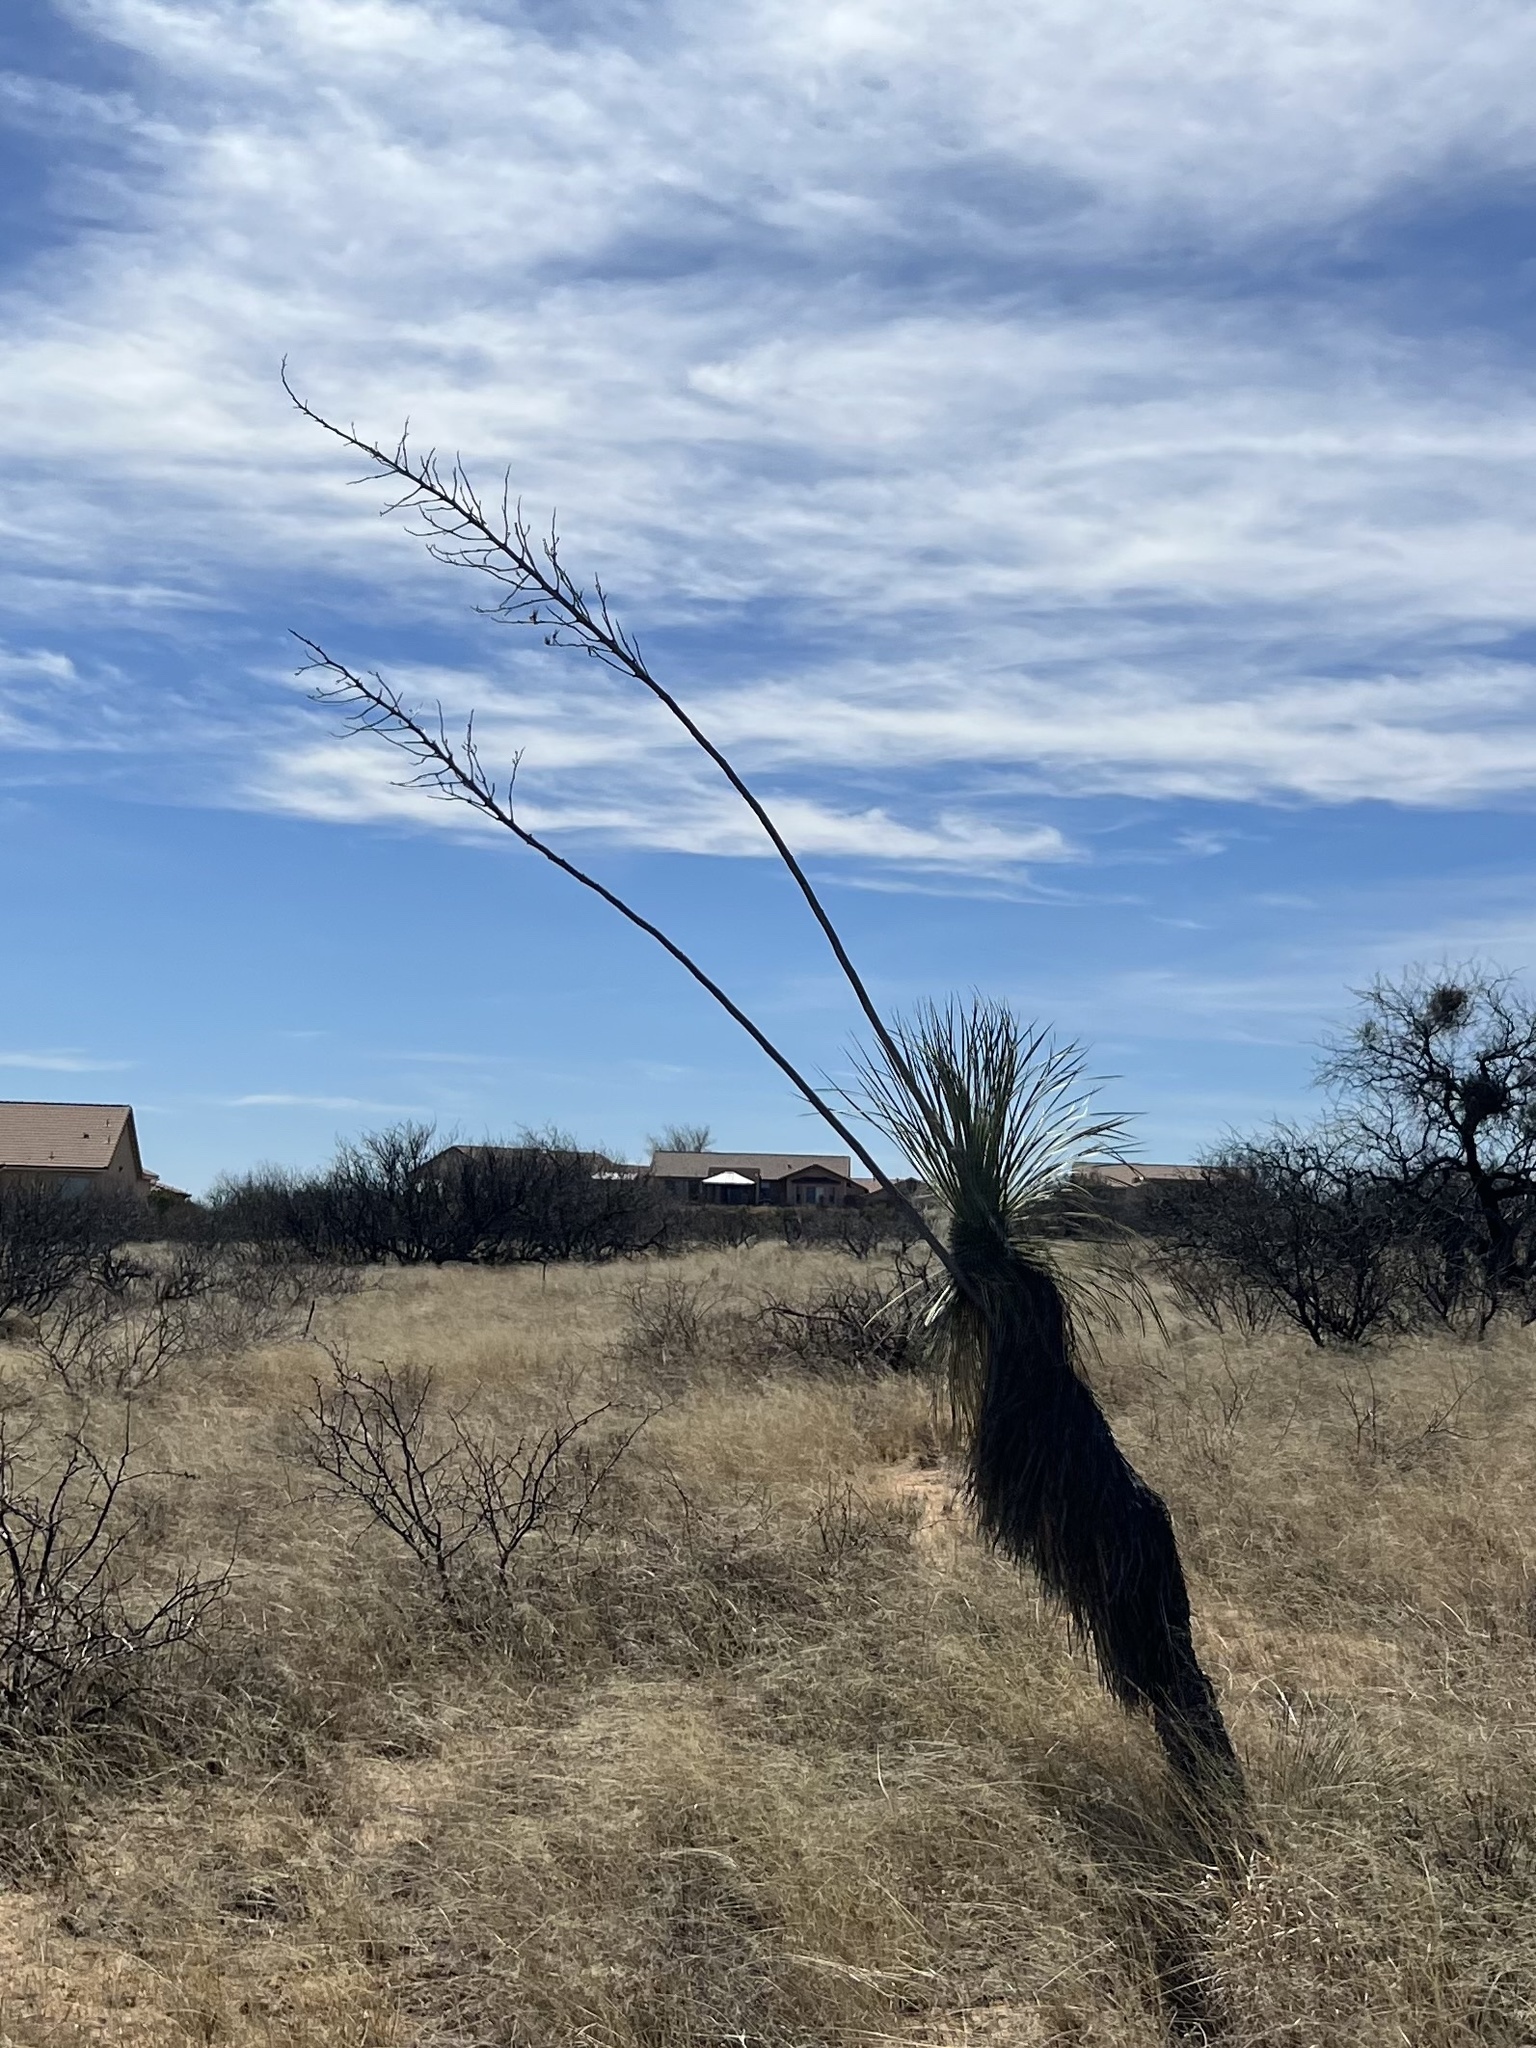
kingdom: Plantae
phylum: Tracheophyta
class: Liliopsida
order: Asparagales
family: Asparagaceae
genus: Yucca
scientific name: Yucca elata
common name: Palmella
